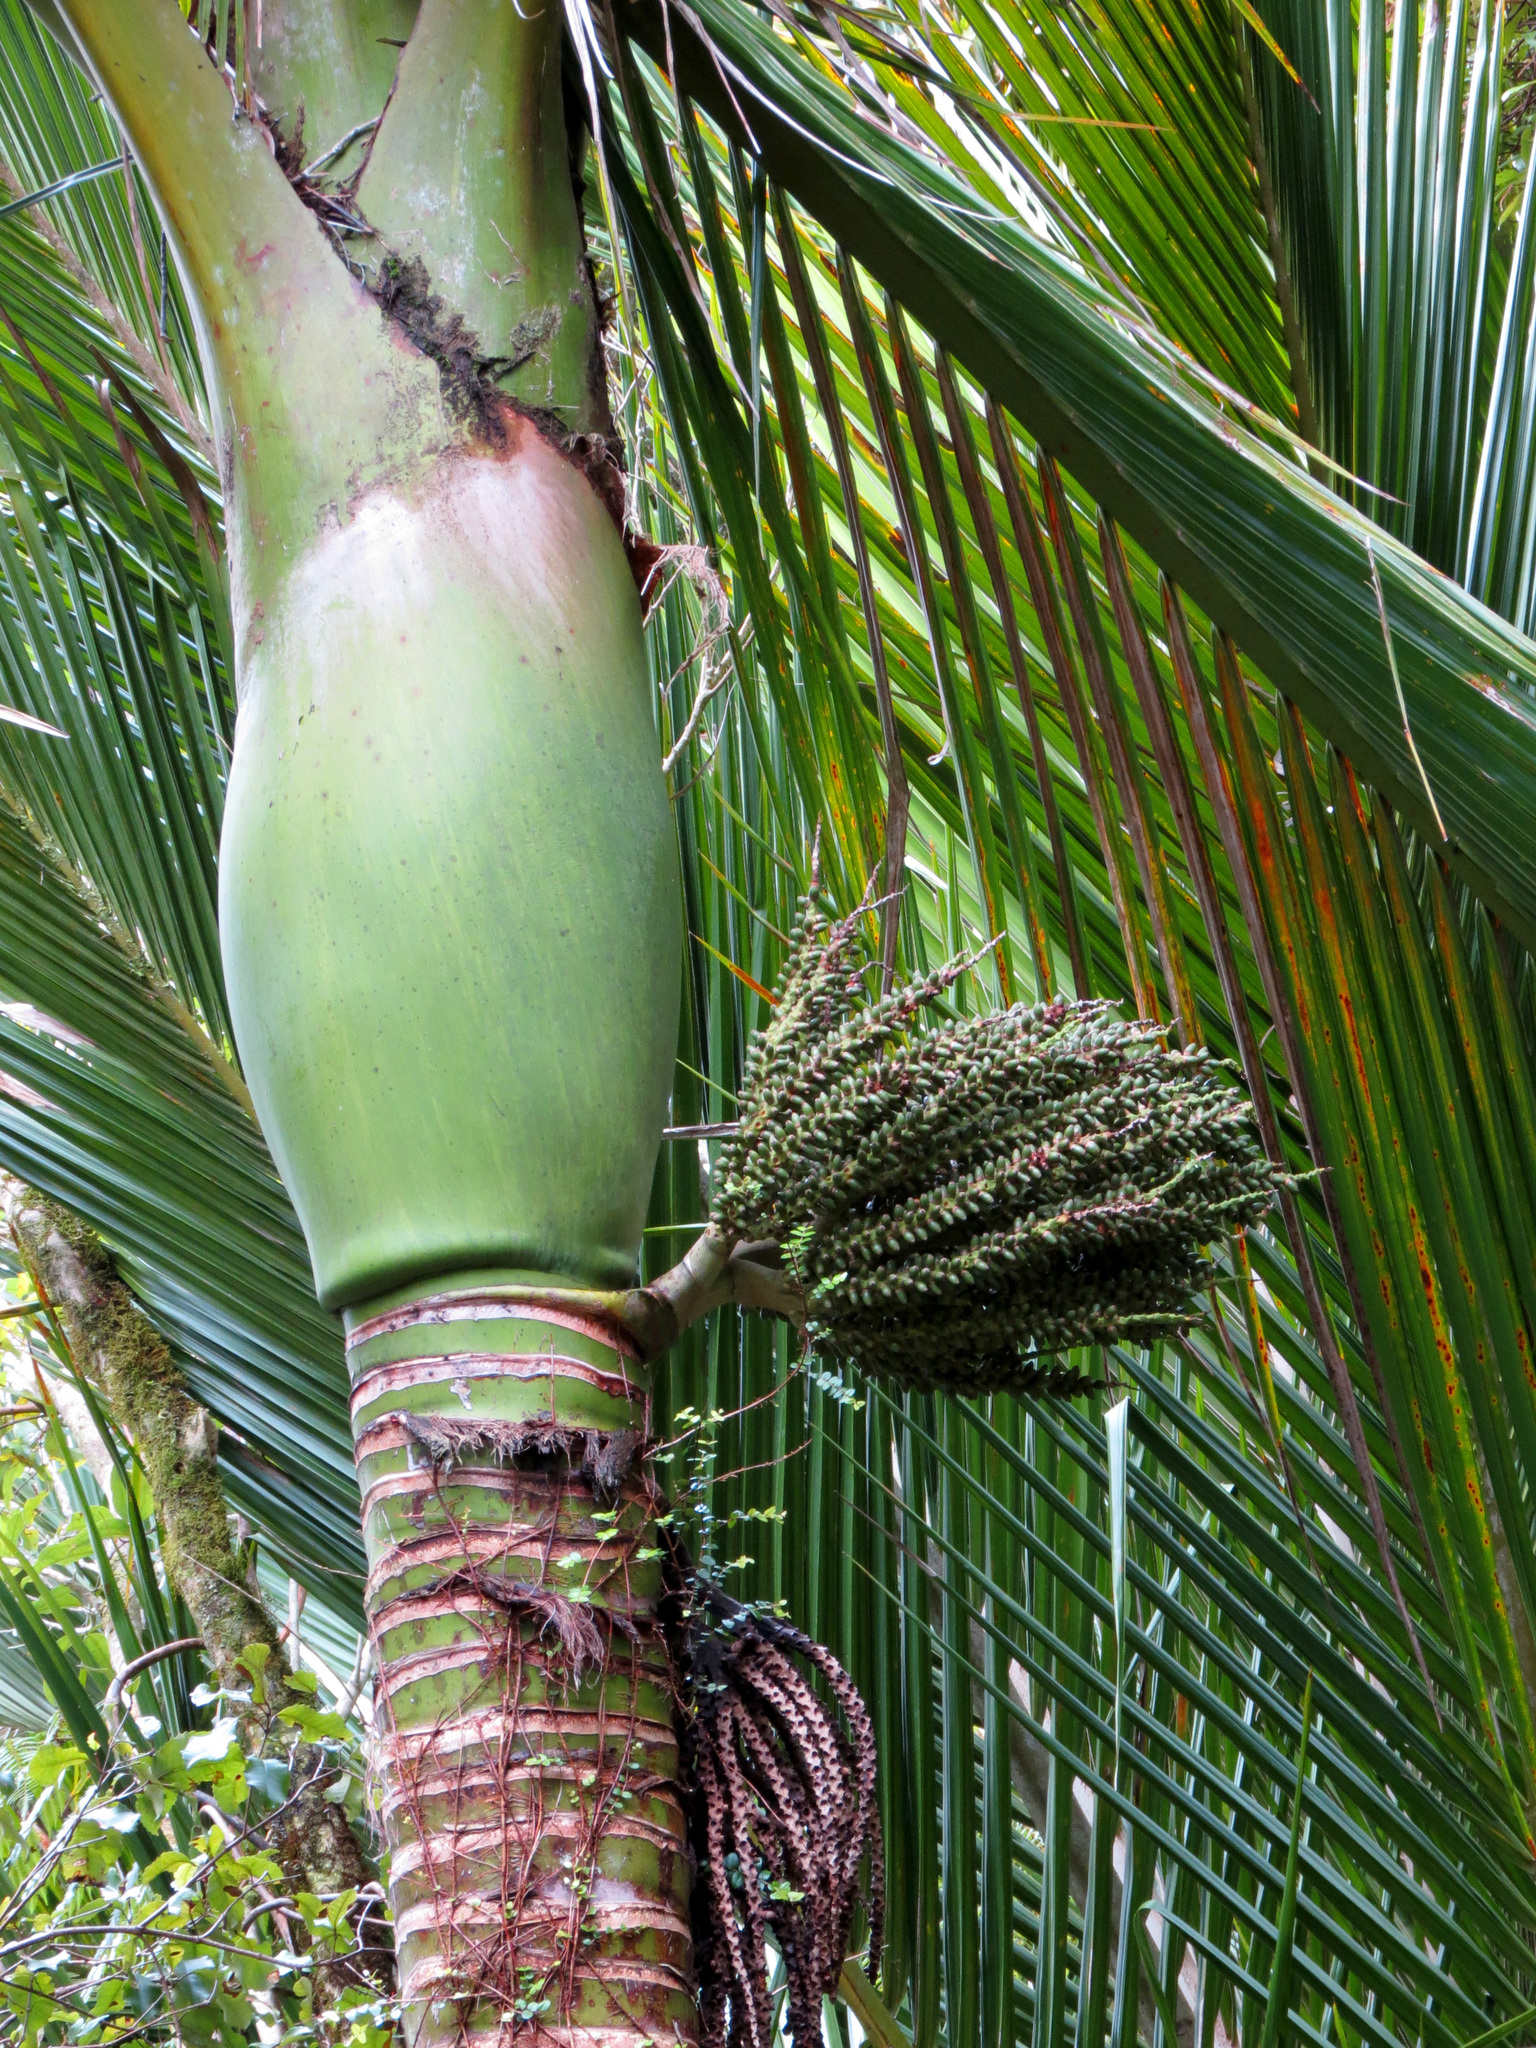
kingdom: Plantae
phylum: Tracheophyta
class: Liliopsida
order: Arecales
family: Arecaceae
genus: Rhopalostylis
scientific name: Rhopalostylis sapida
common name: Feather-duster palm
